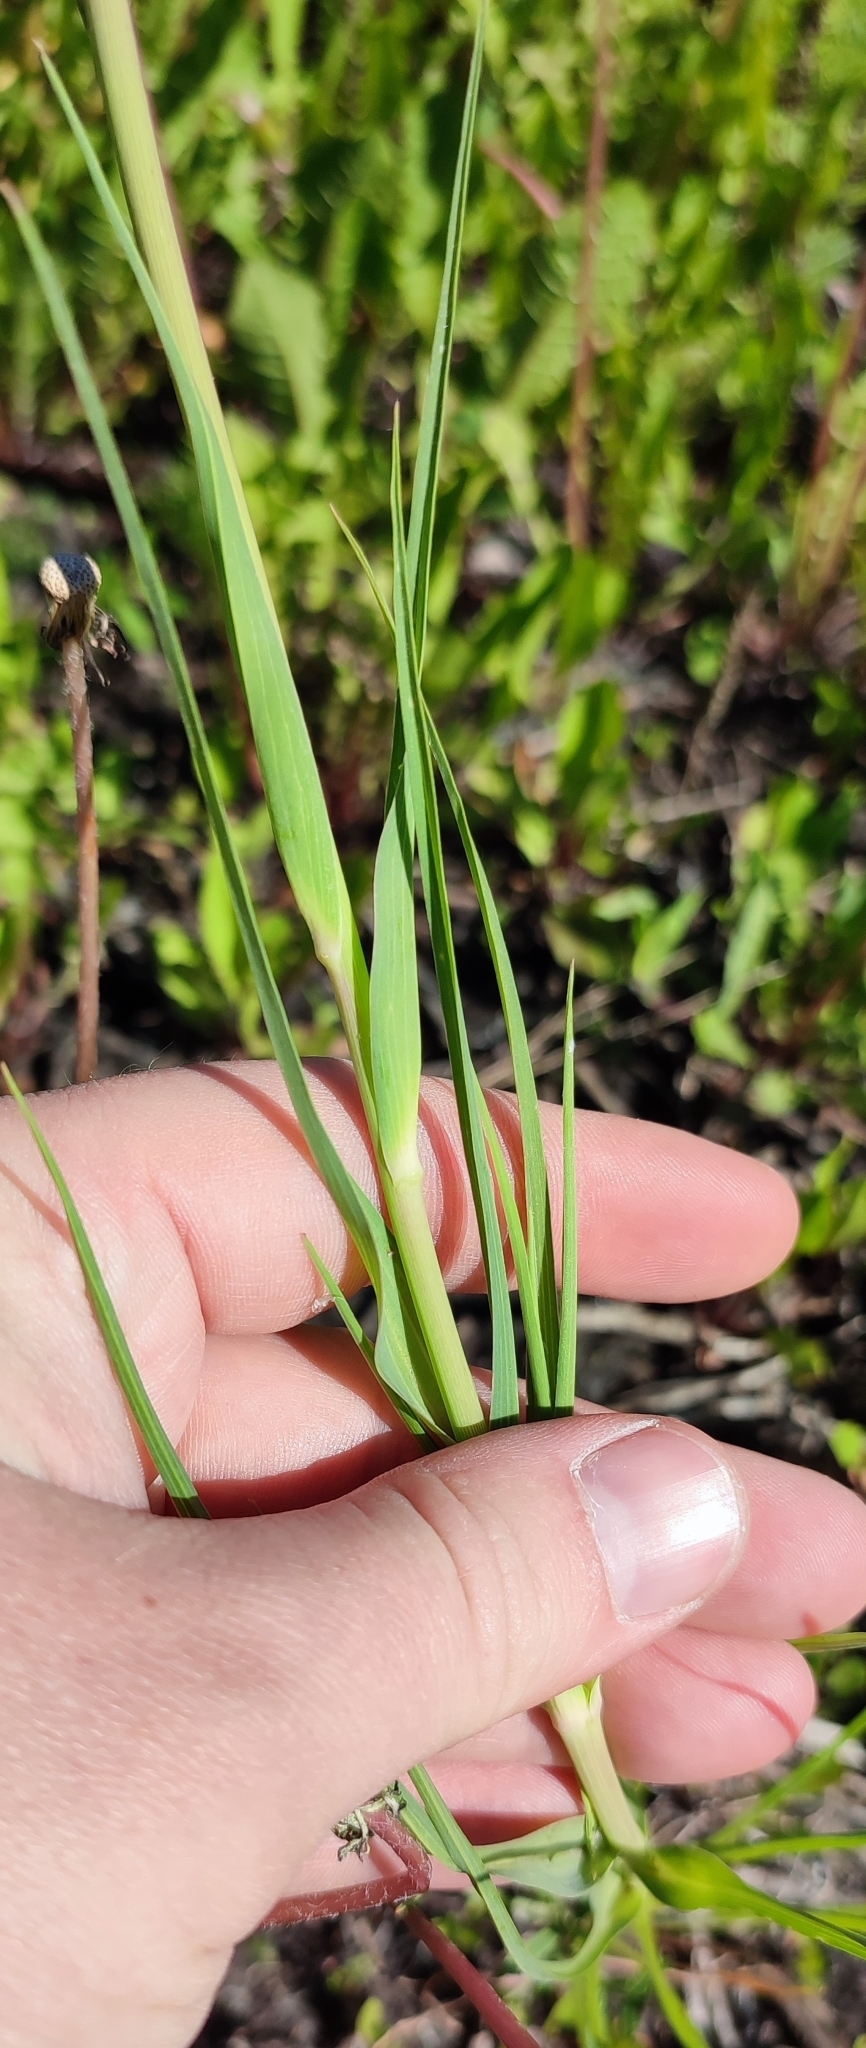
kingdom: Plantae
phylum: Tracheophyta
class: Magnoliopsida
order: Asterales
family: Asteraceae
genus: Tragopogon
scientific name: Tragopogon dubius
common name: Yellow salsify
